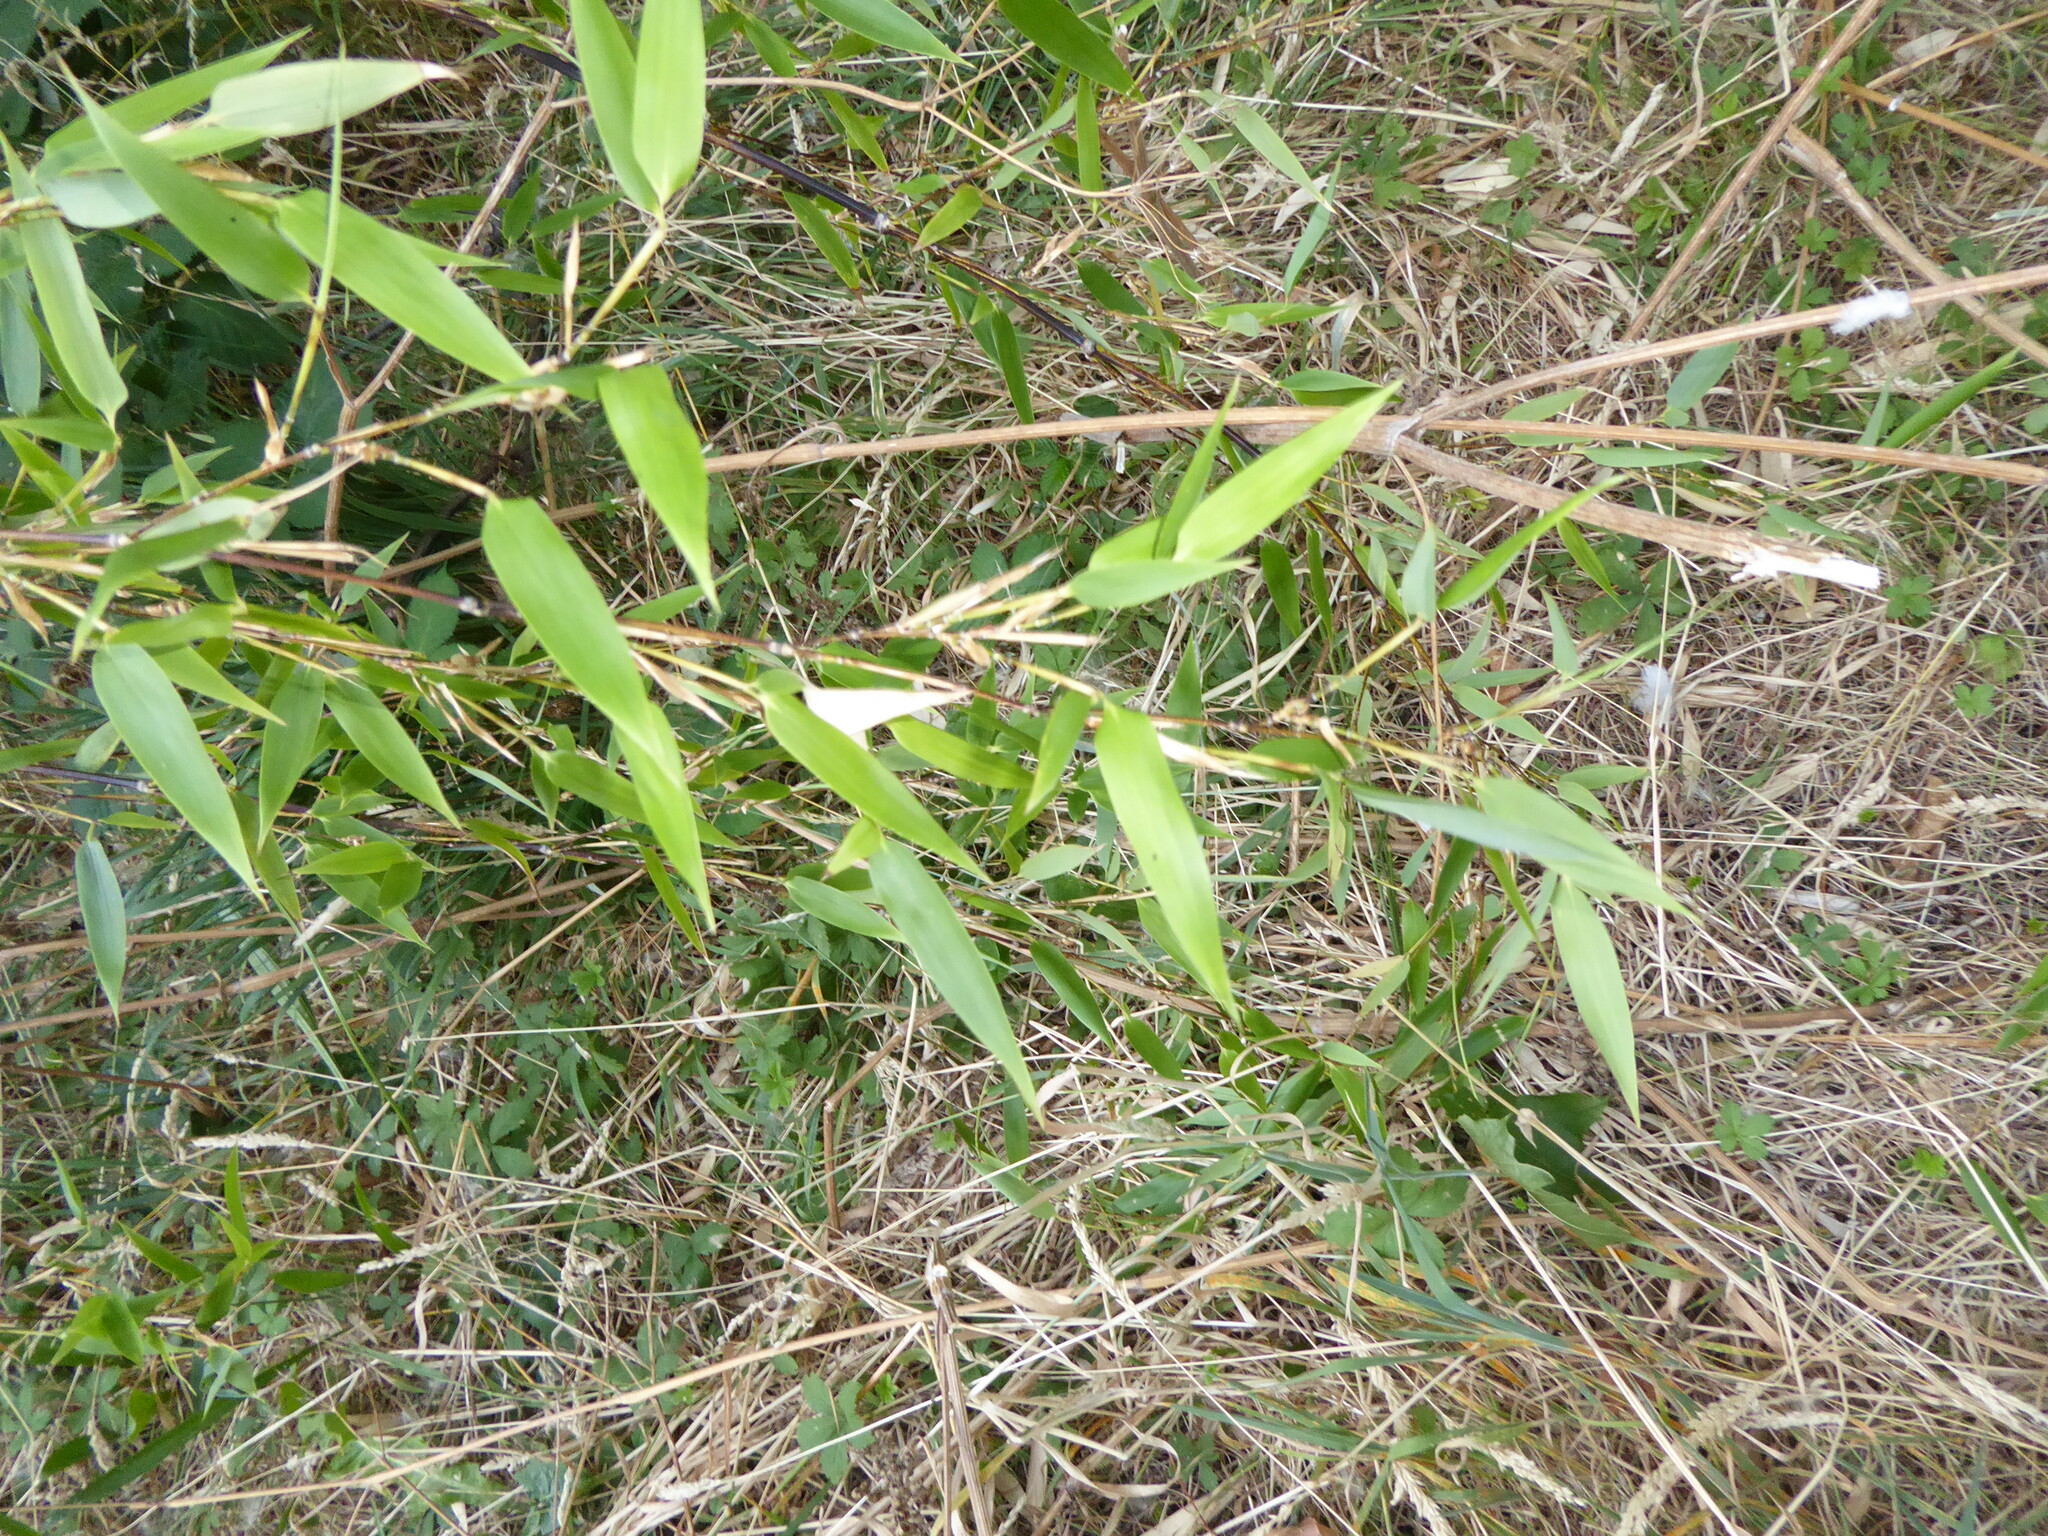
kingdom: Plantae
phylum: Tracheophyta
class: Liliopsida
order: Poales
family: Poaceae
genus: Phyllostachys
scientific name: Phyllostachys nigra
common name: Black bamboo
